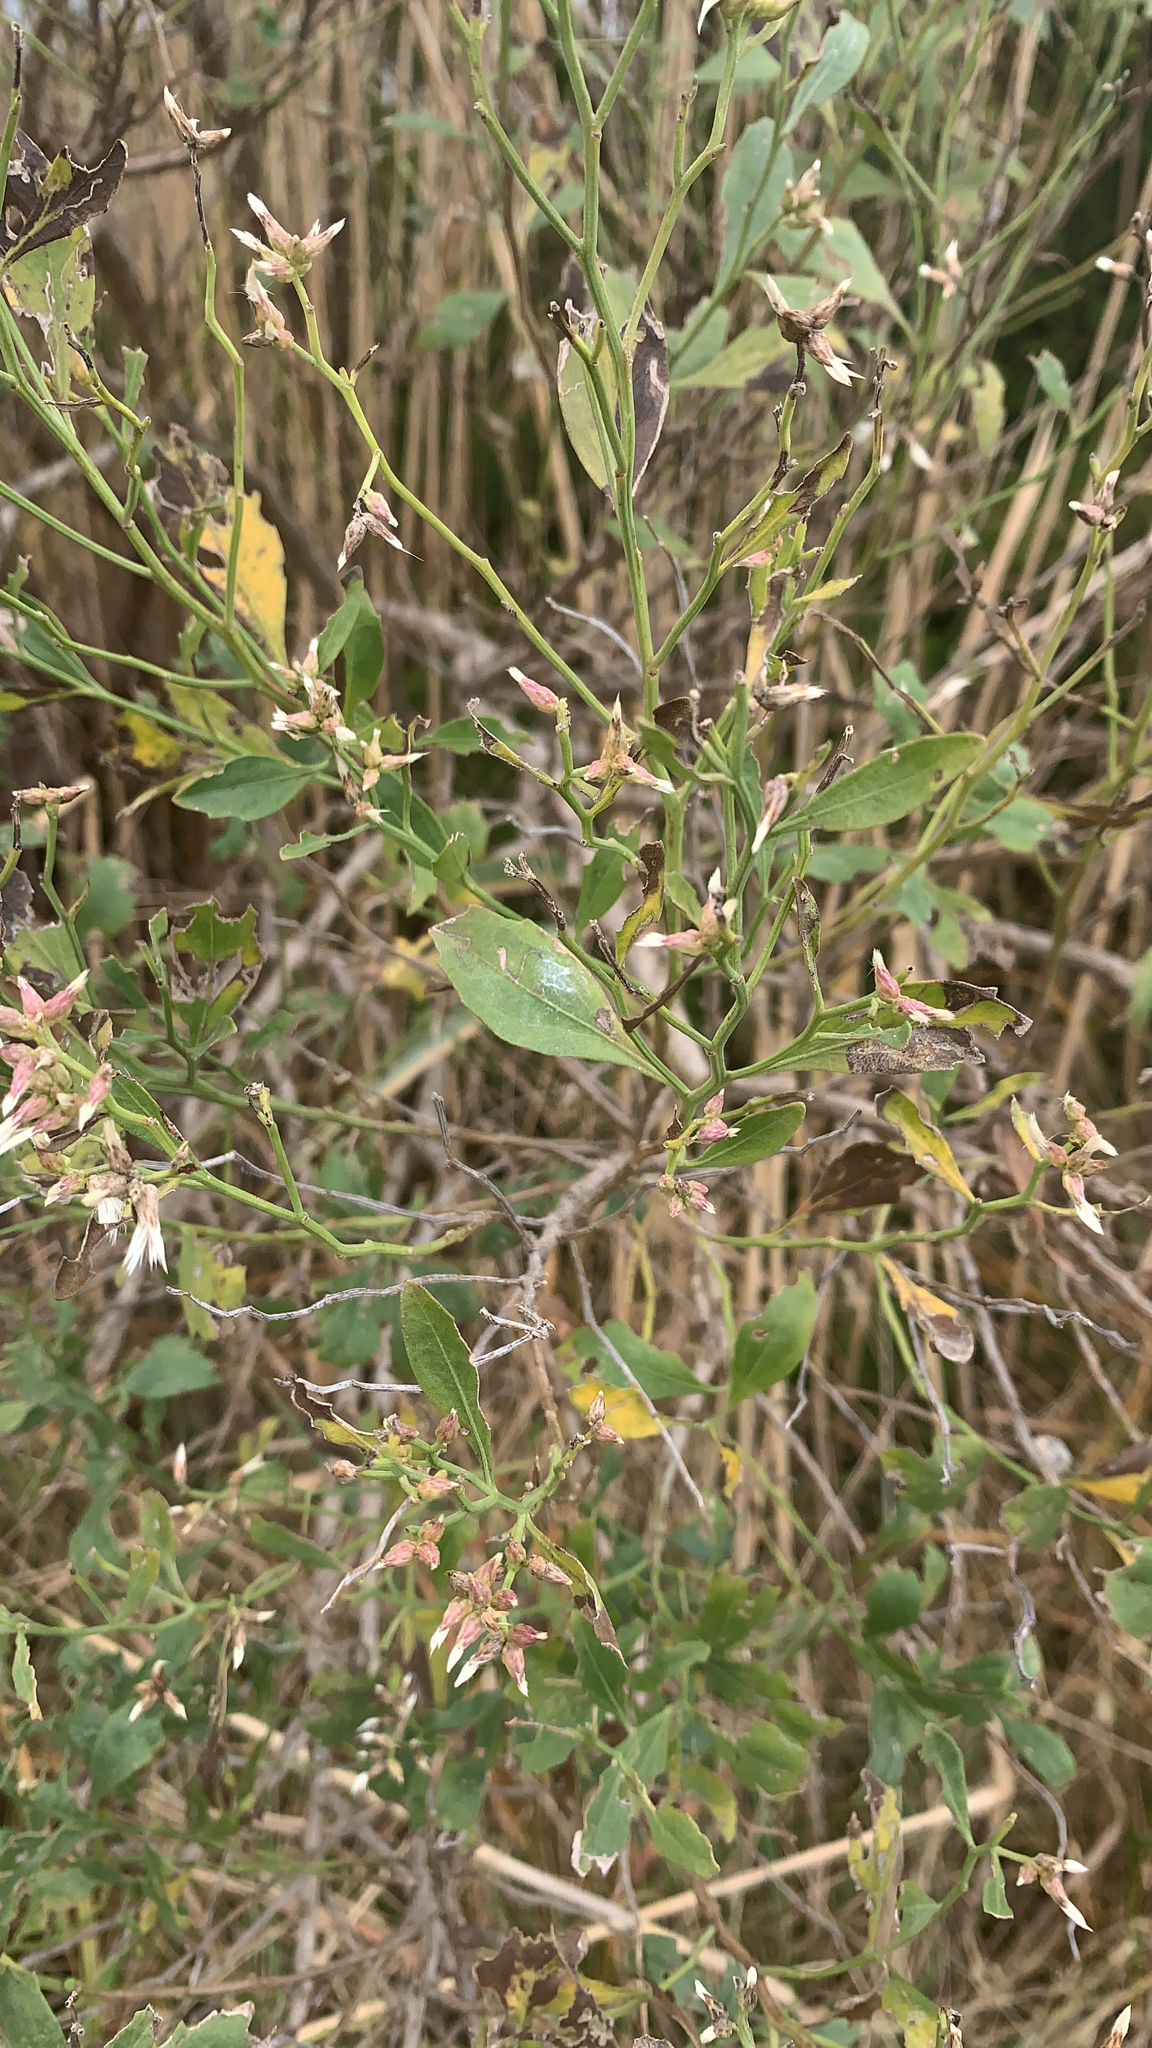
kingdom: Plantae
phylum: Tracheophyta
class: Magnoliopsida
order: Asterales
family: Asteraceae
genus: Baccharis
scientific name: Baccharis halimifolia
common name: Eastern baccharis
